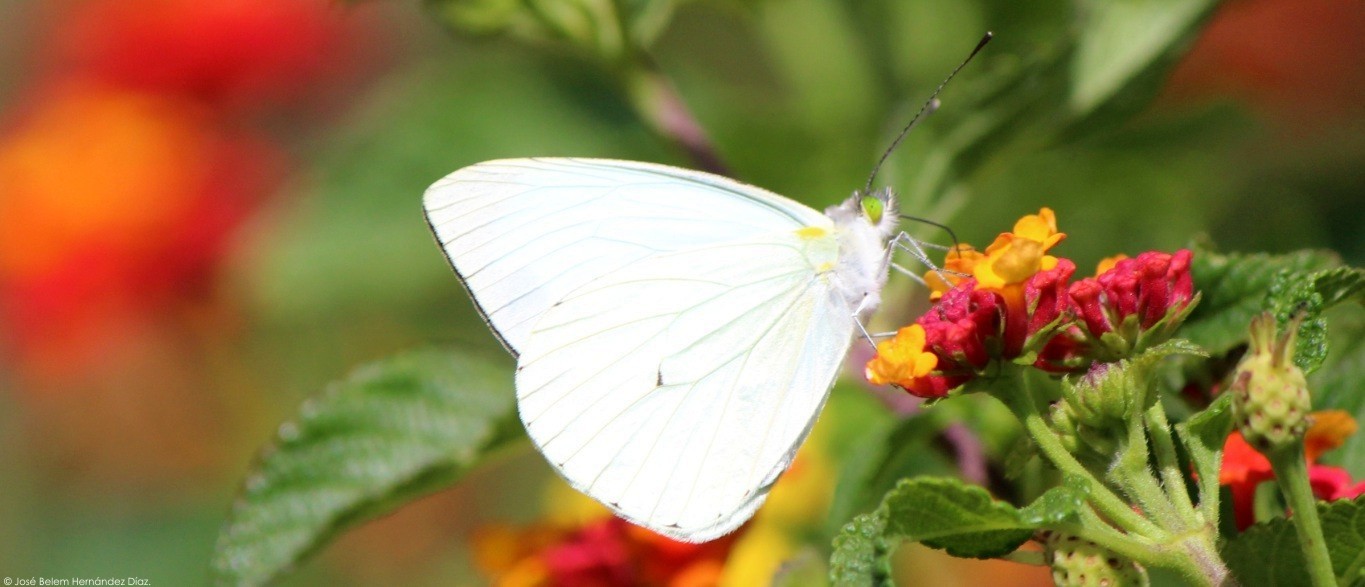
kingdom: Animalia
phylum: Arthropoda
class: Insecta
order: Lepidoptera
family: Pieridae
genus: Leptophobia
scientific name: Leptophobia aripa
